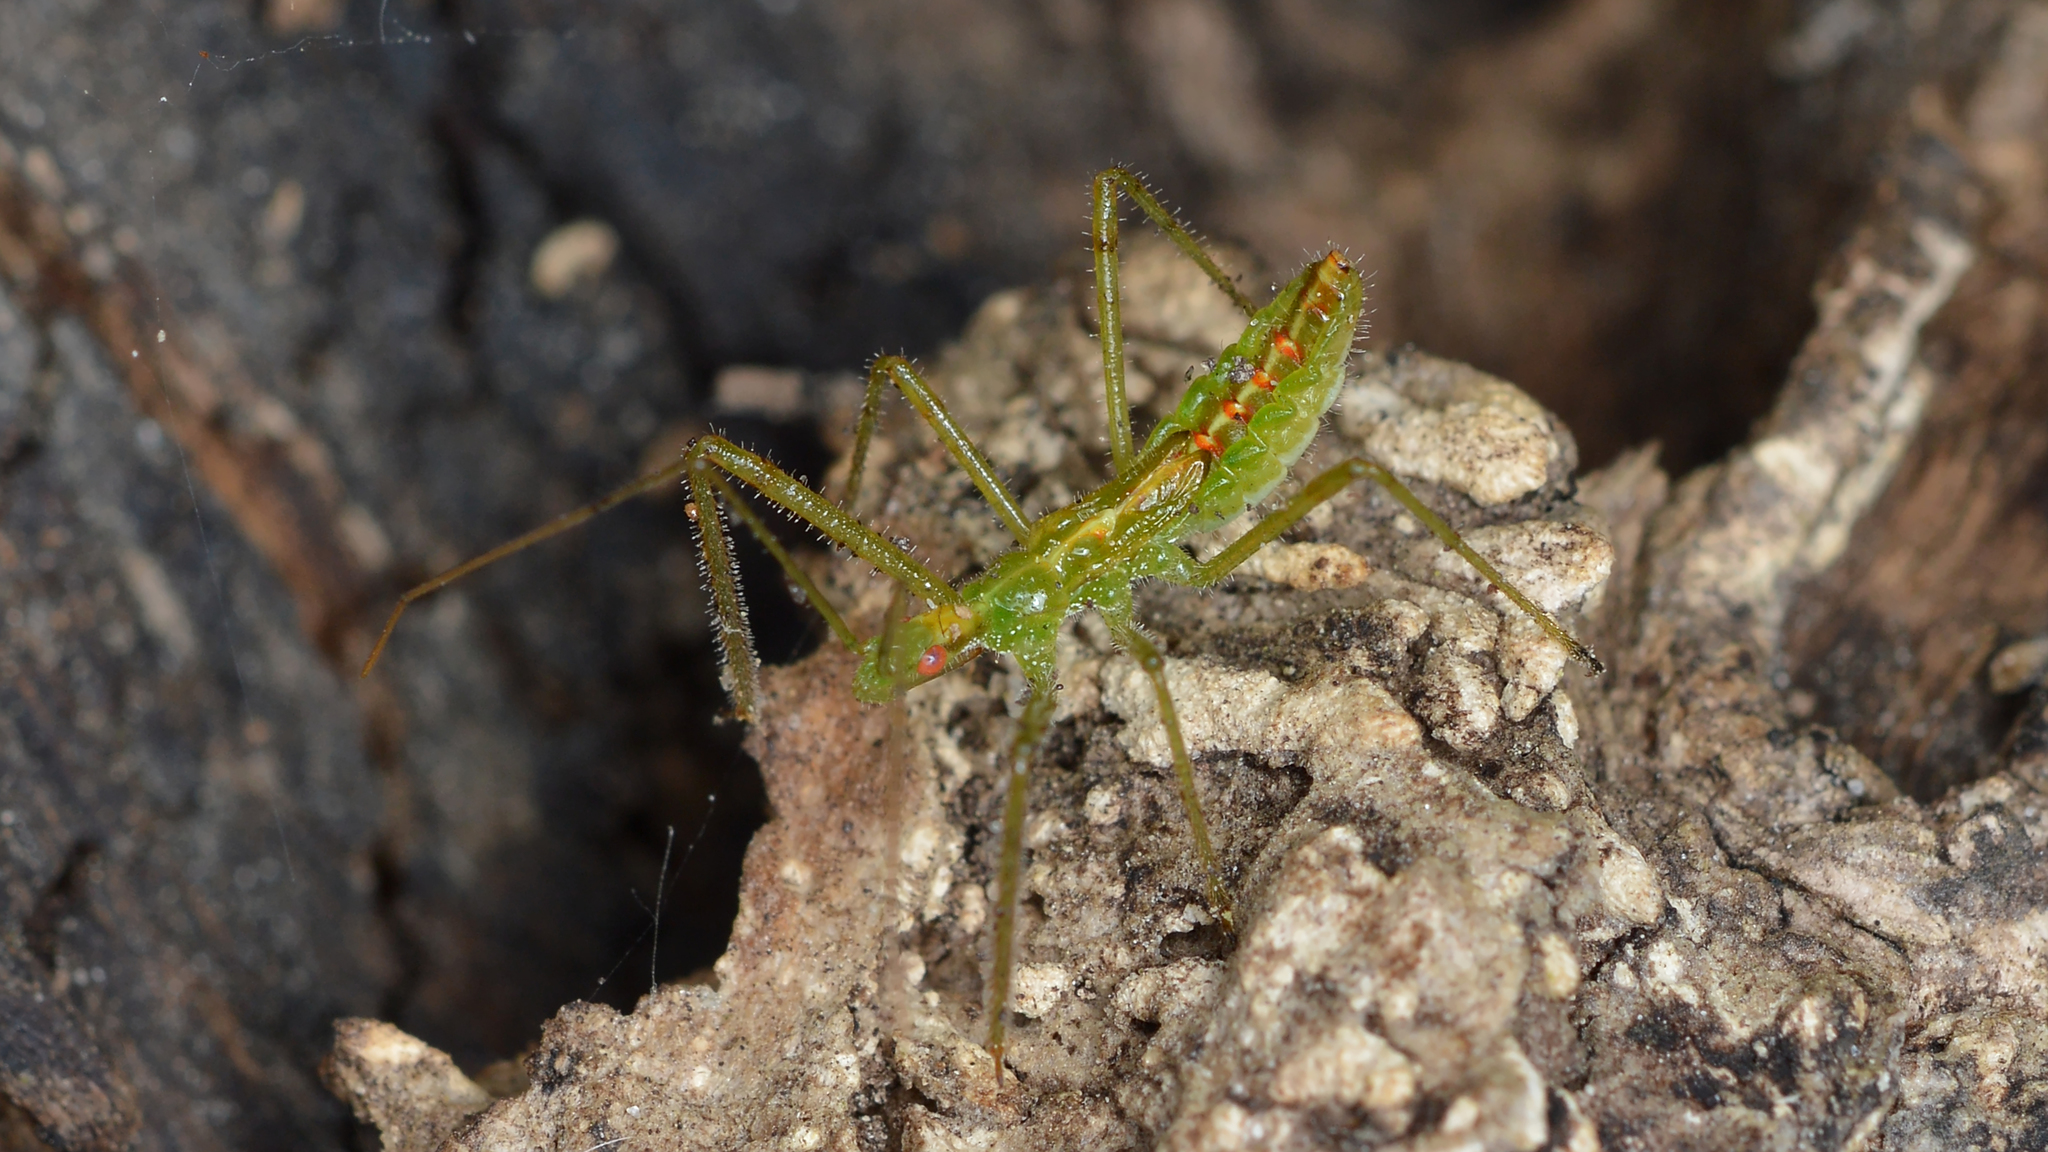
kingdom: Animalia
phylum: Arthropoda
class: Insecta
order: Hemiptera
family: Reduviidae
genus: Zelus
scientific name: Zelus luridus
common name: Pale green assassin bug
